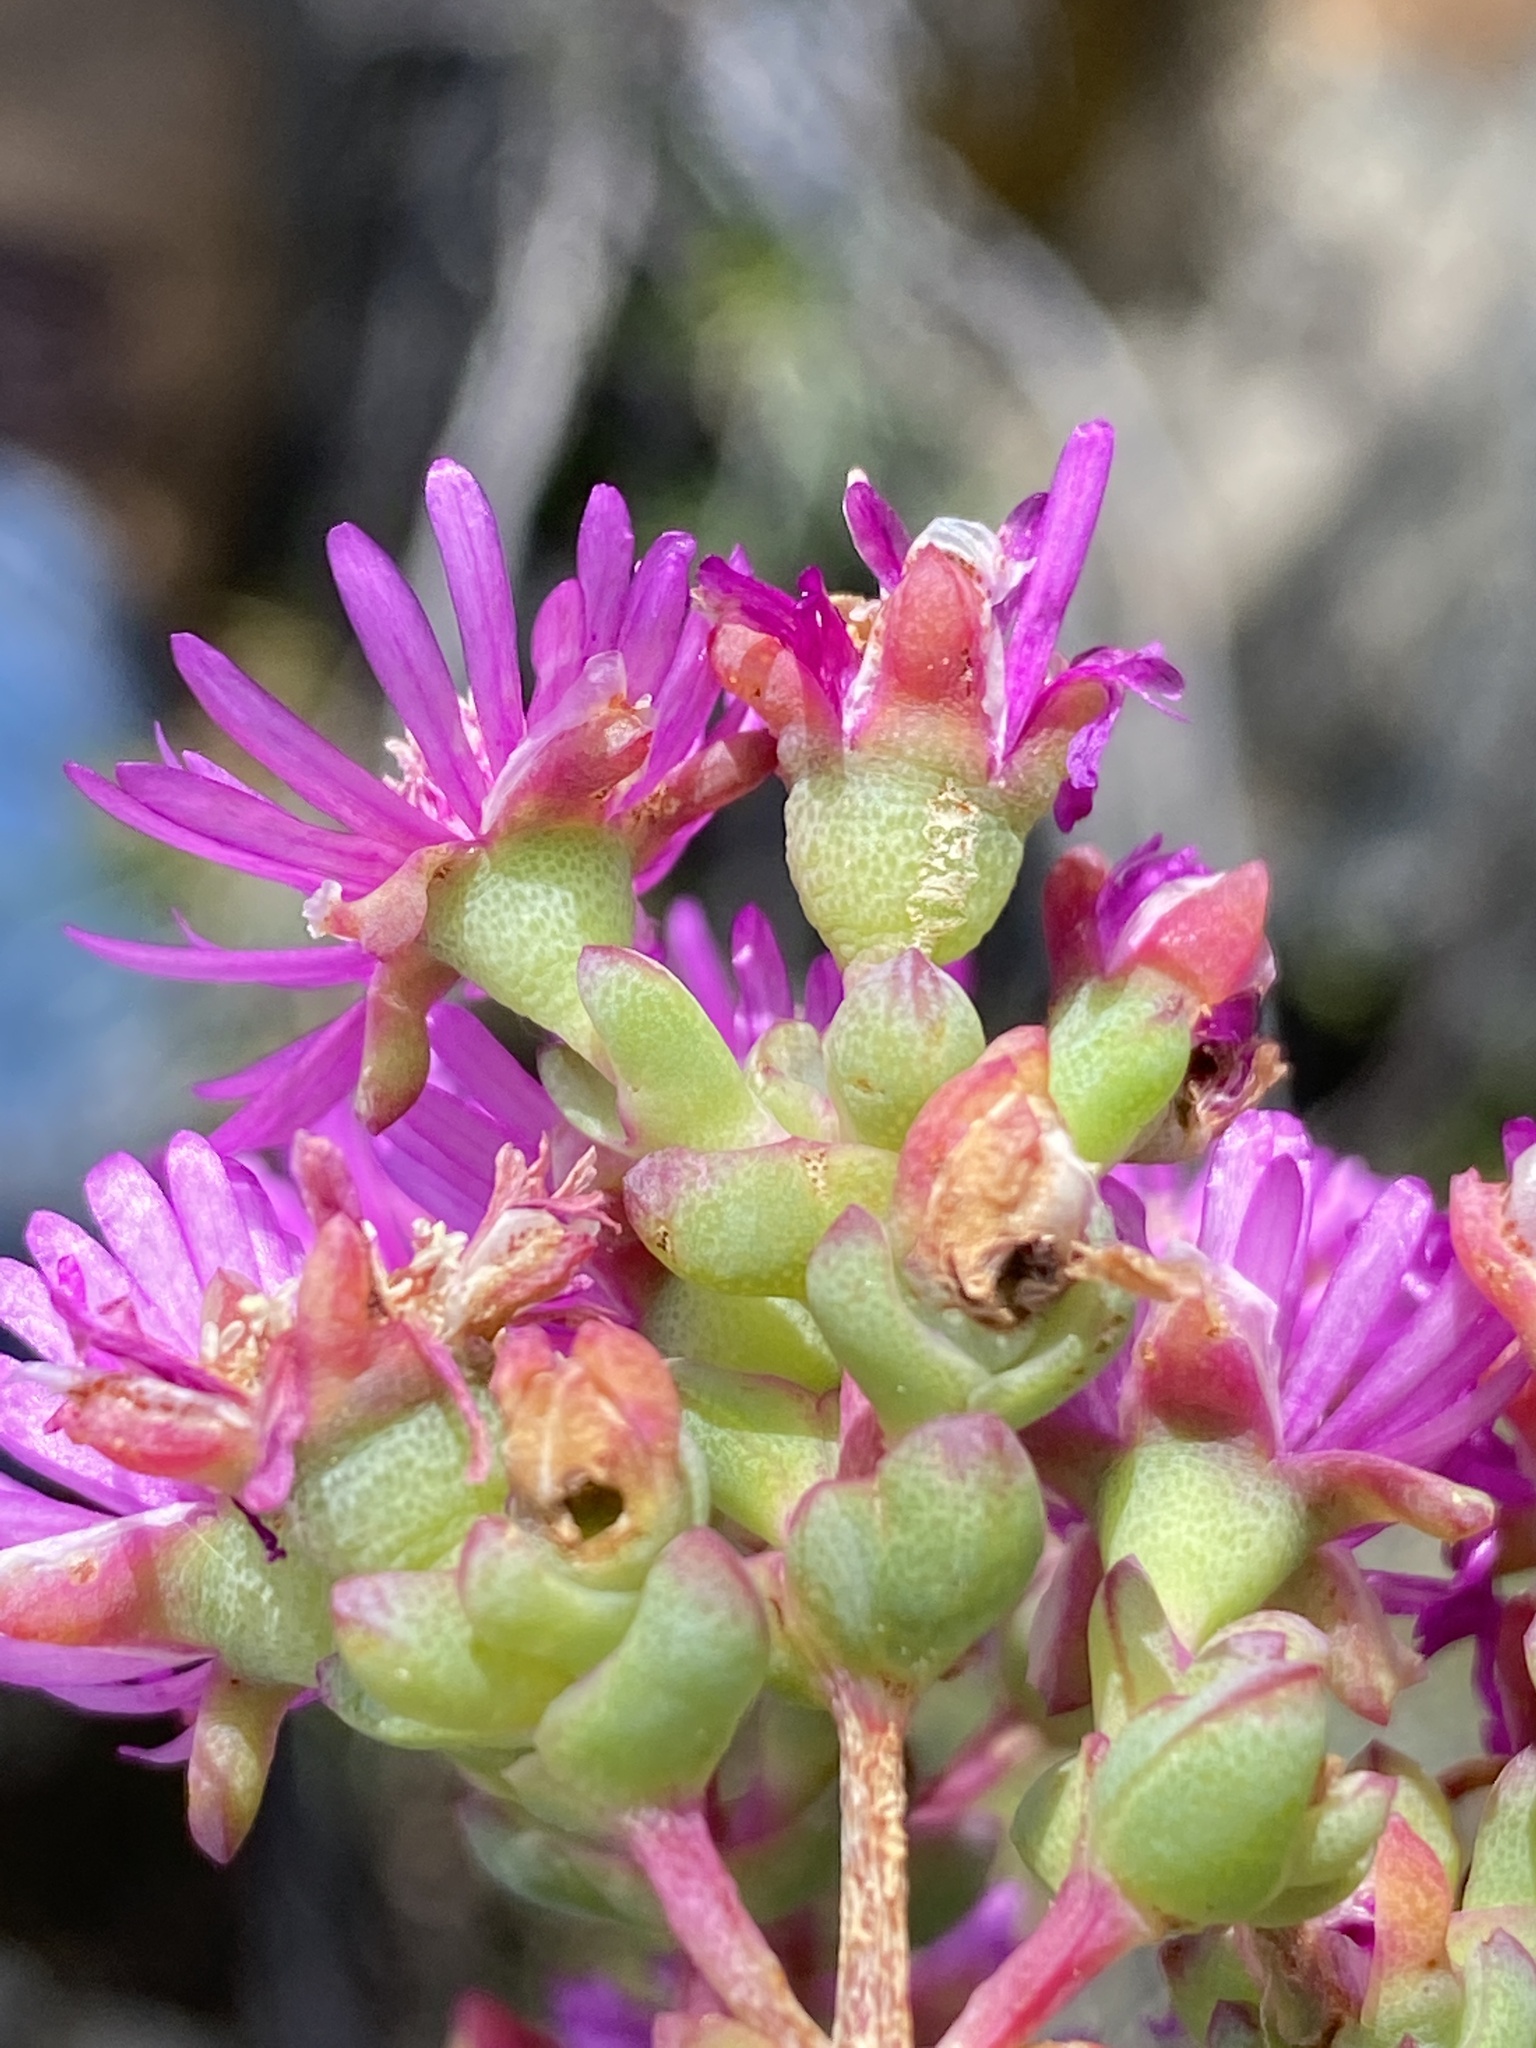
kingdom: Plantae
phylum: Tracheophyta
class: Magnoliopsida
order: Caryophyllales
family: Aizoaceae
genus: Ruschia
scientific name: Ruschia pungens
